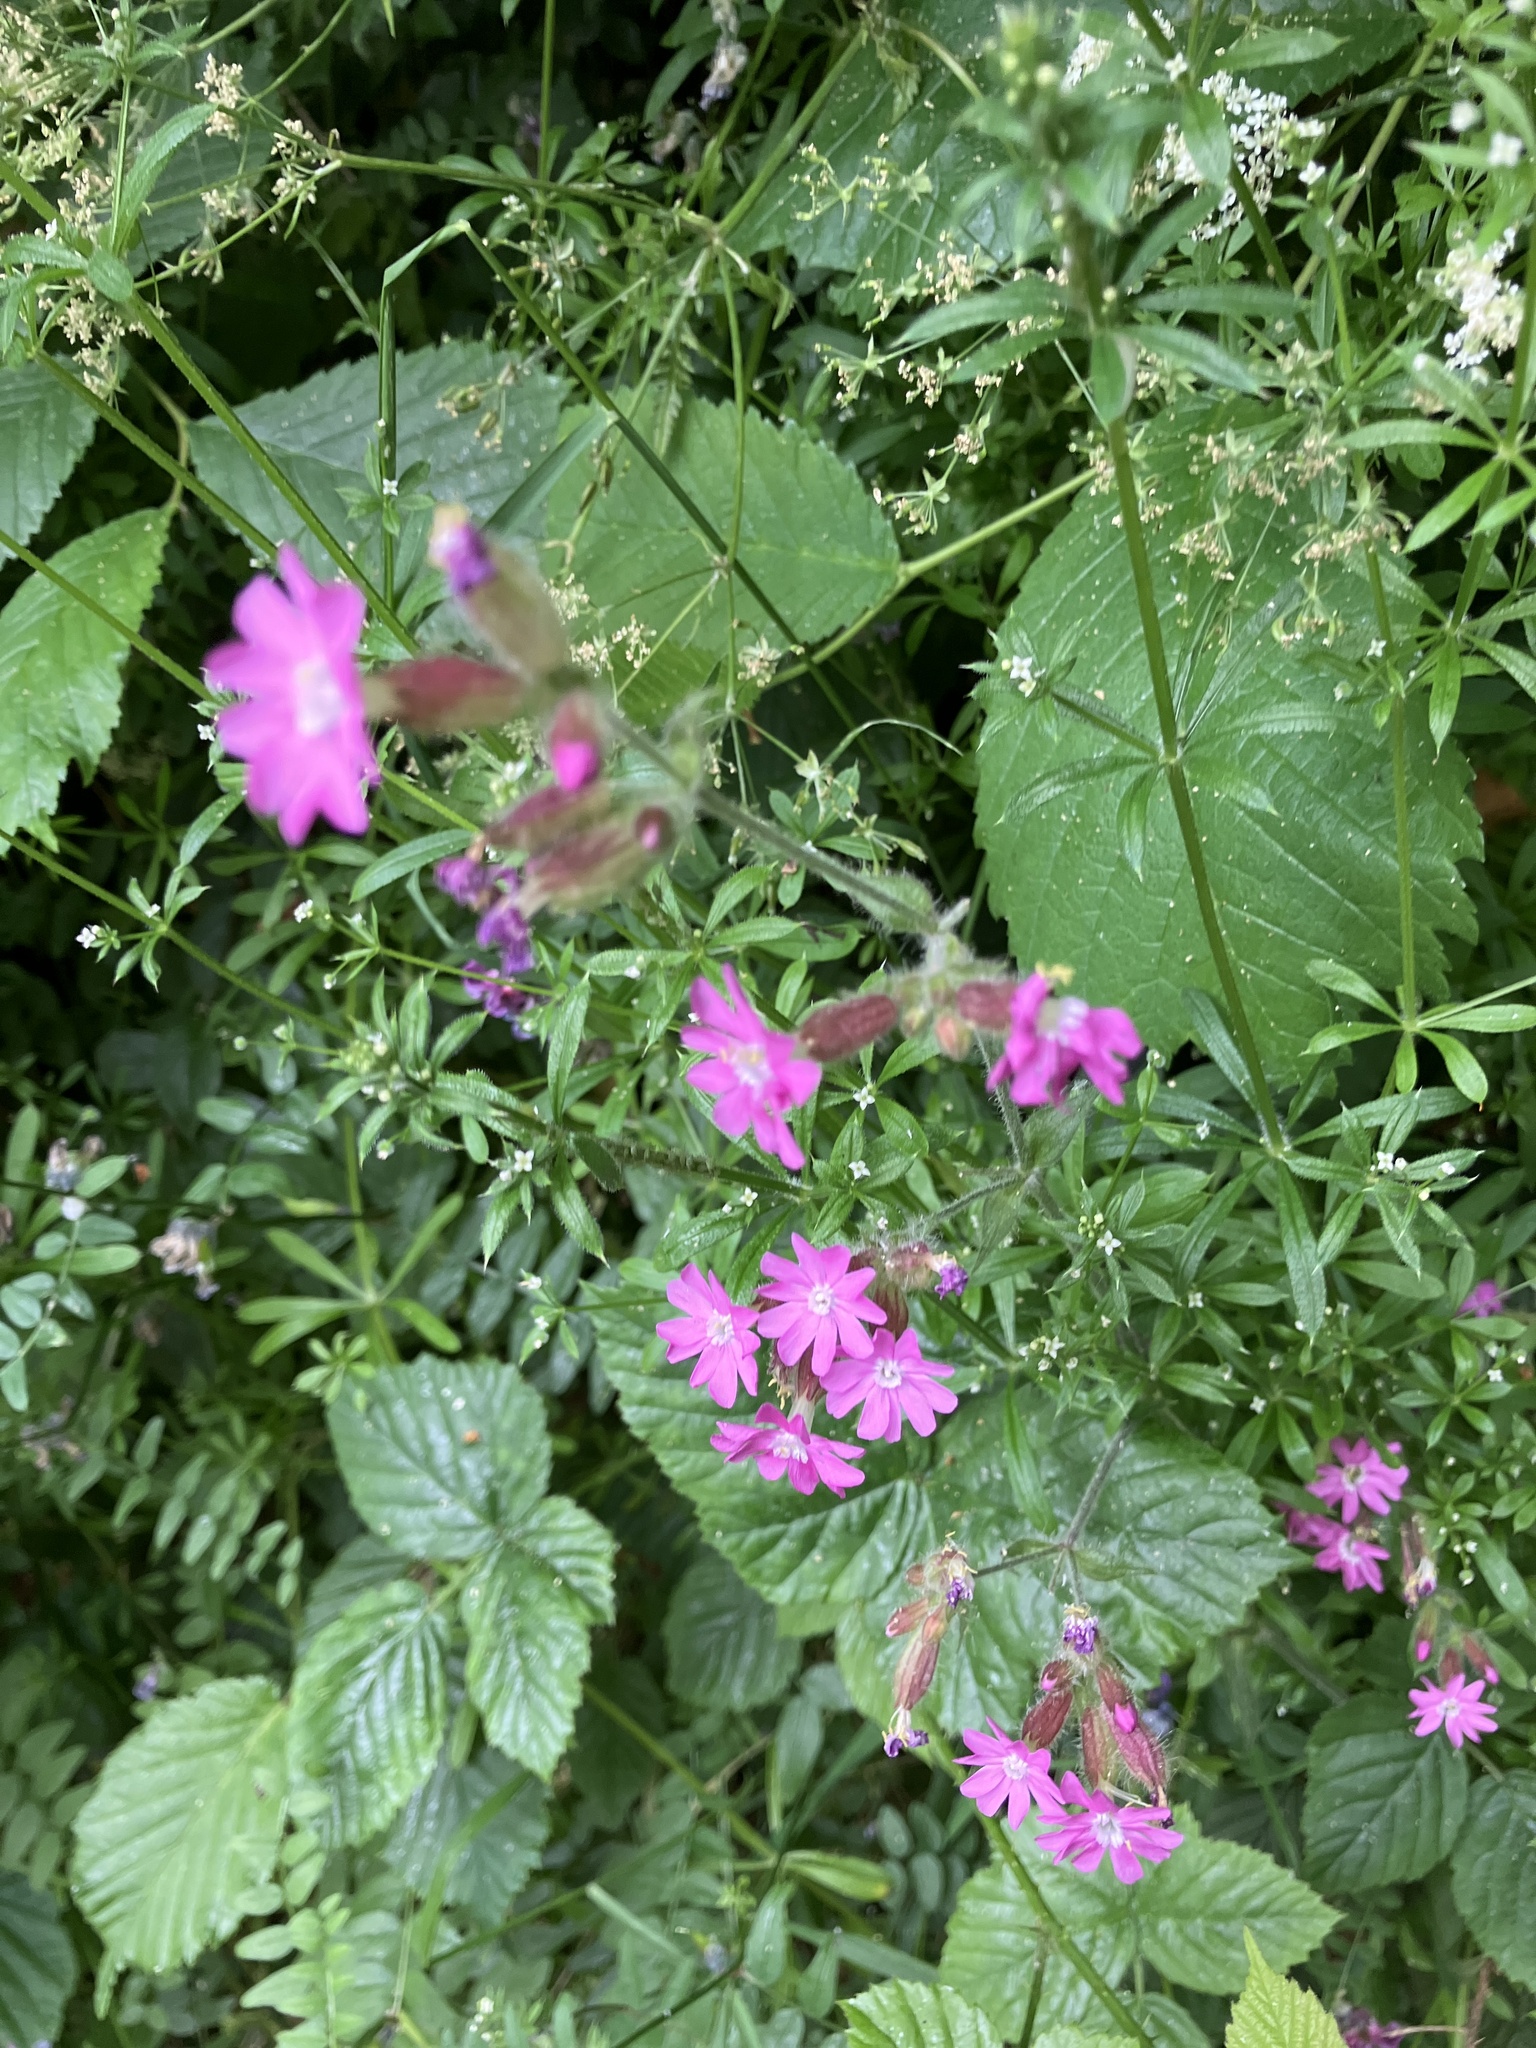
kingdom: Plantae
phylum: Tracheophyta
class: Magnoliopsida
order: Caryophyllales
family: Caryophyllaceae
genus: Silene
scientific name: Silene dioica
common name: Red campion
